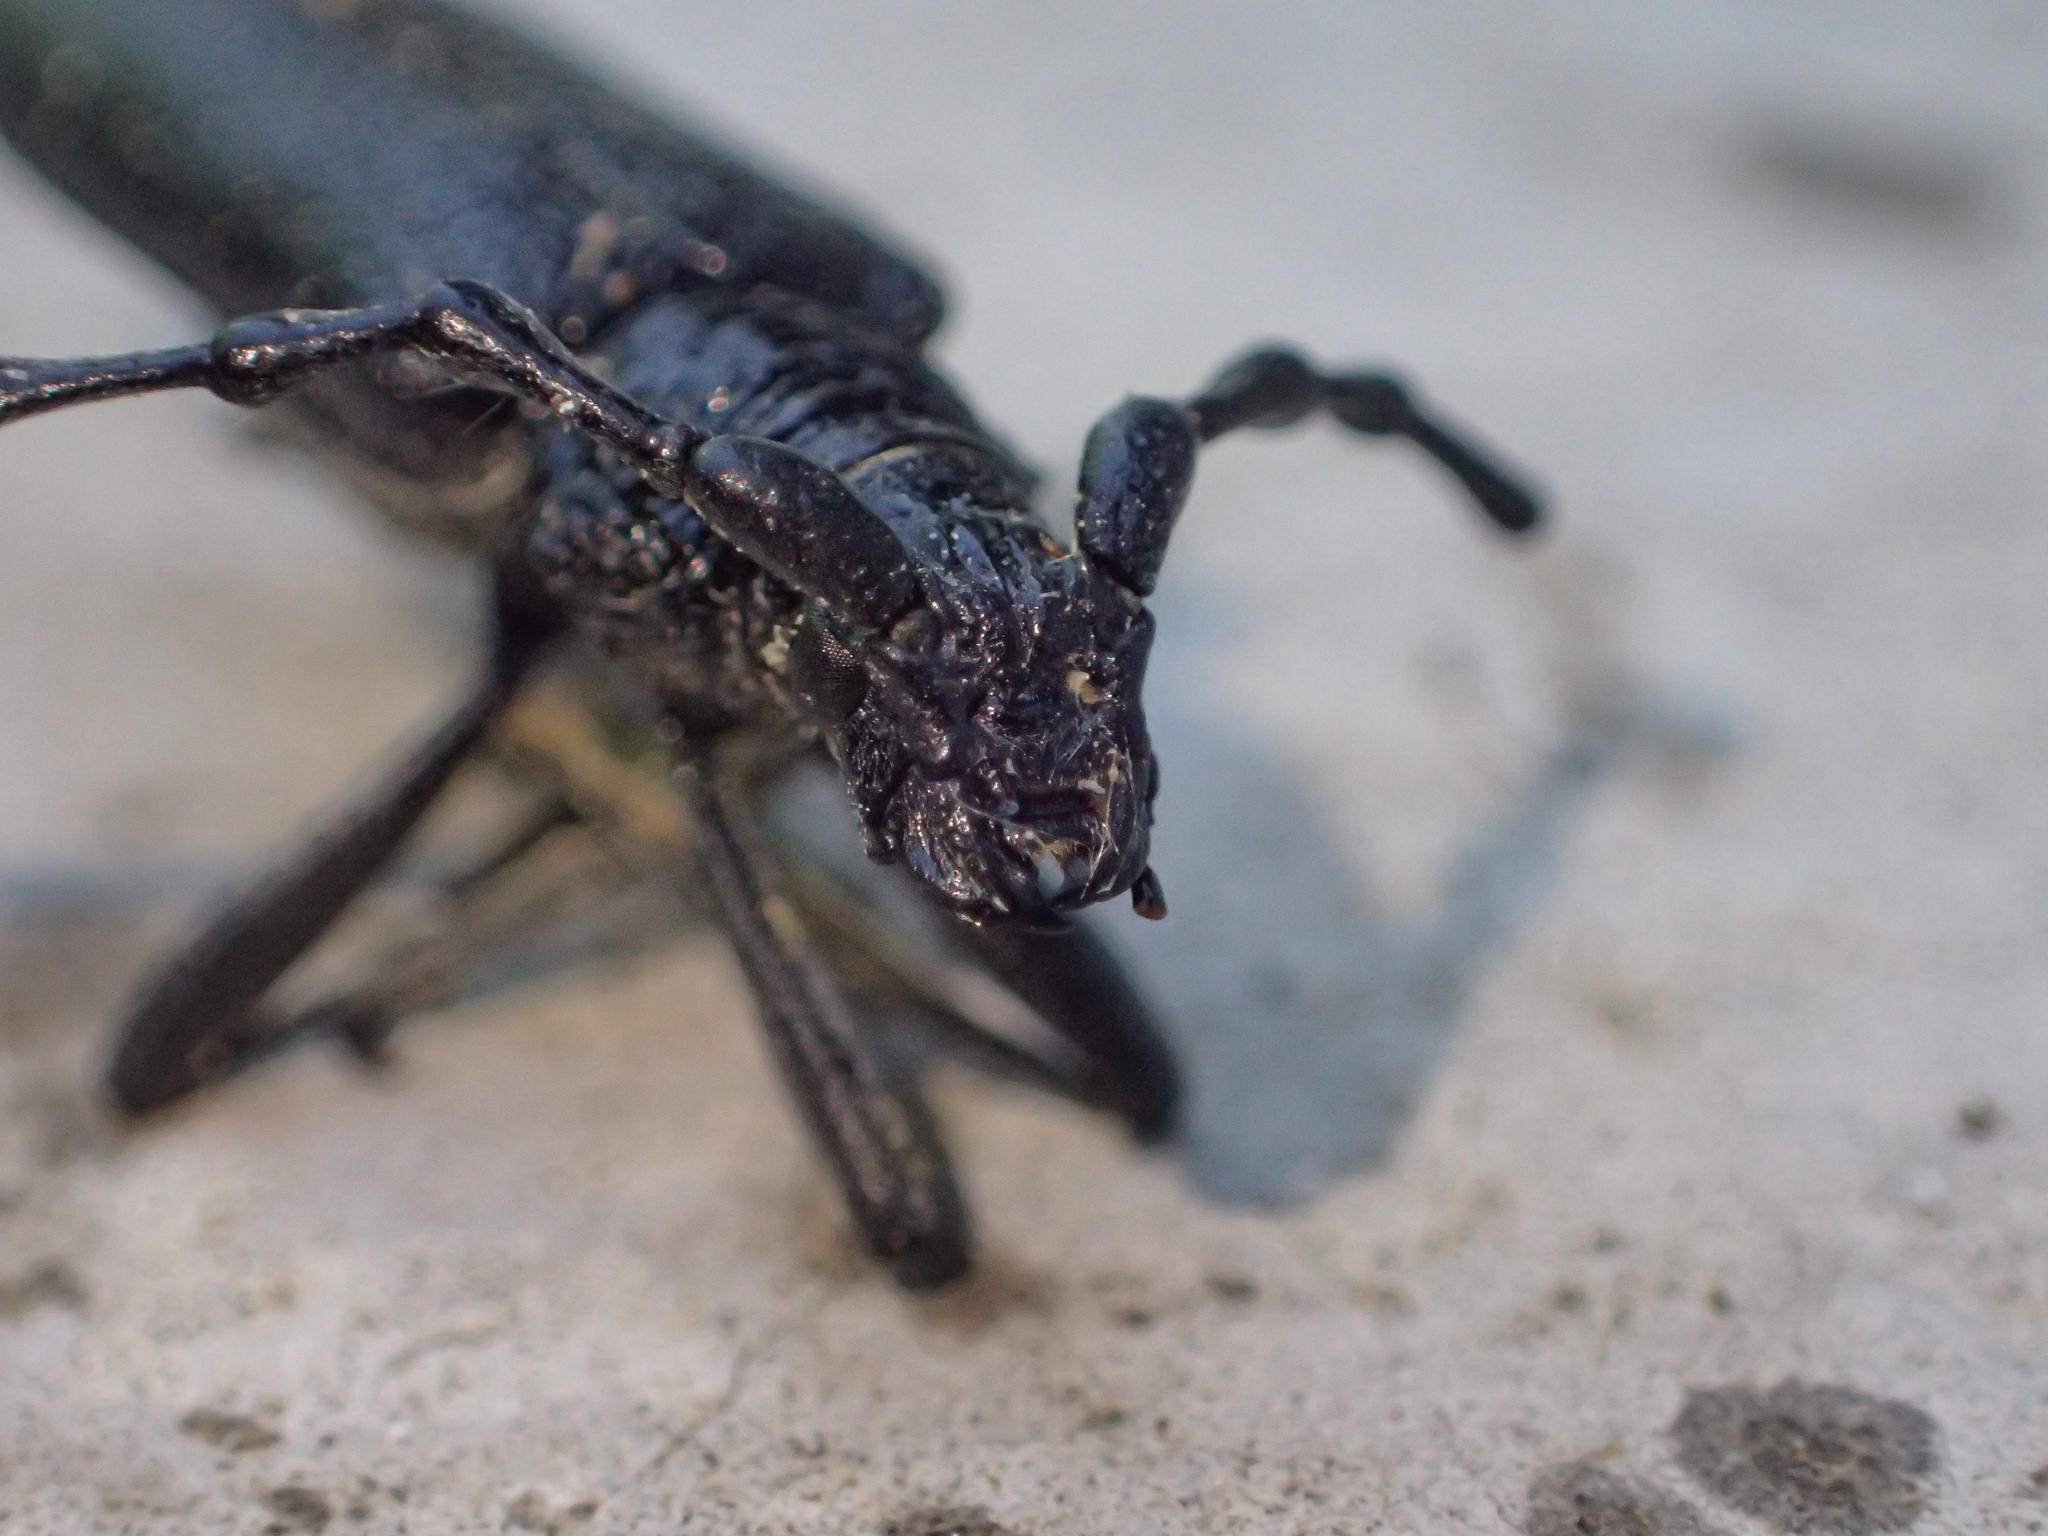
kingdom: Animalia
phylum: Arthropoda
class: Insecta
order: Coleoptera
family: Cerambycidae
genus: Cerambyx
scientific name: Cerambyx scopolii
